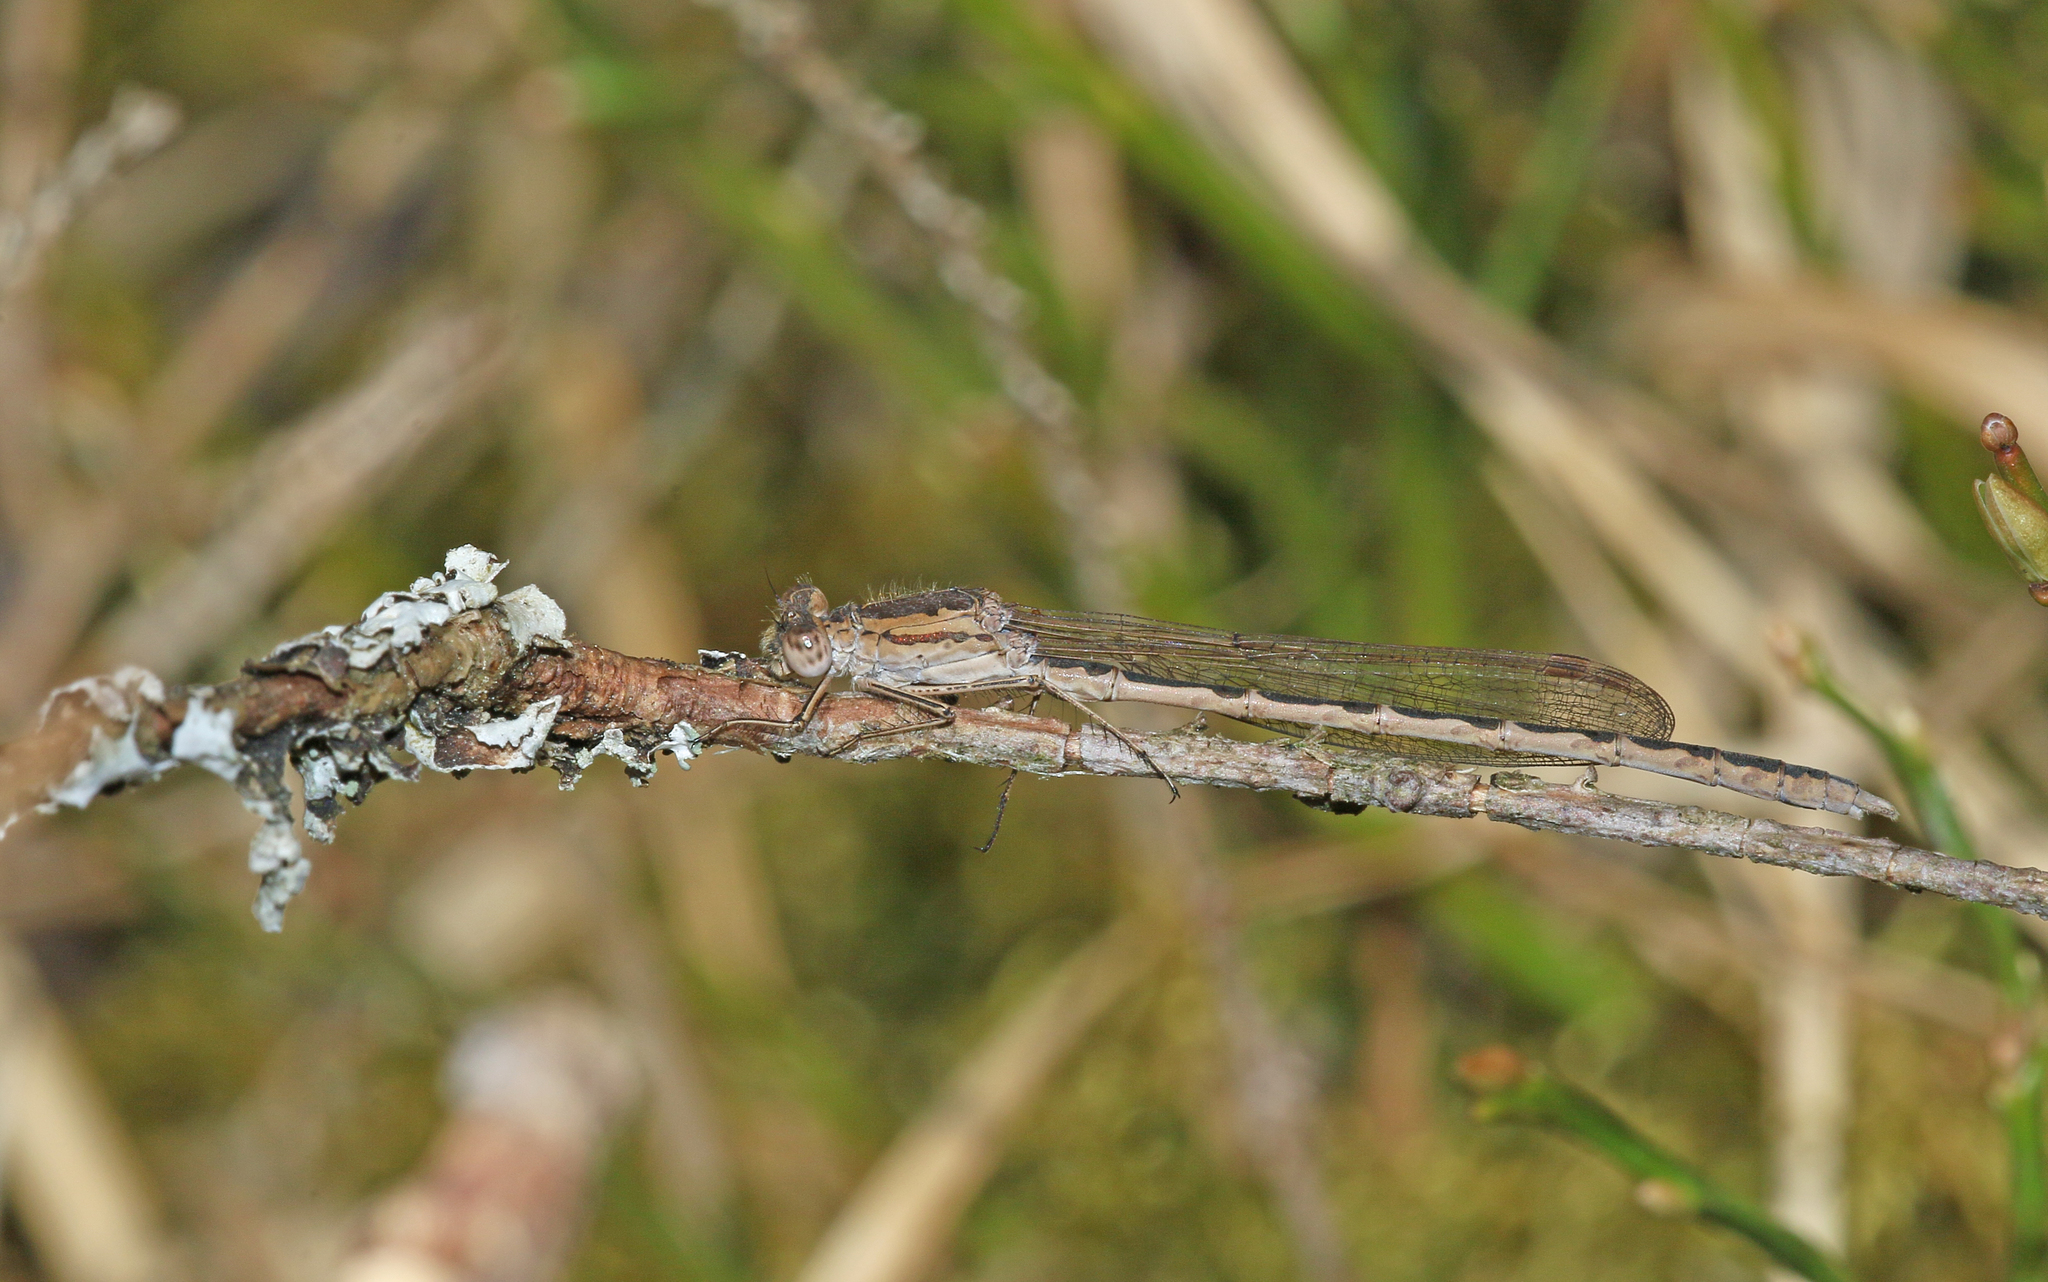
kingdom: Animalia
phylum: Arthropoda
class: Insecta
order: Odonata
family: Lestidae
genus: Sympecma
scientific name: Sympecma paedisca
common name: Siberian winter damsel
